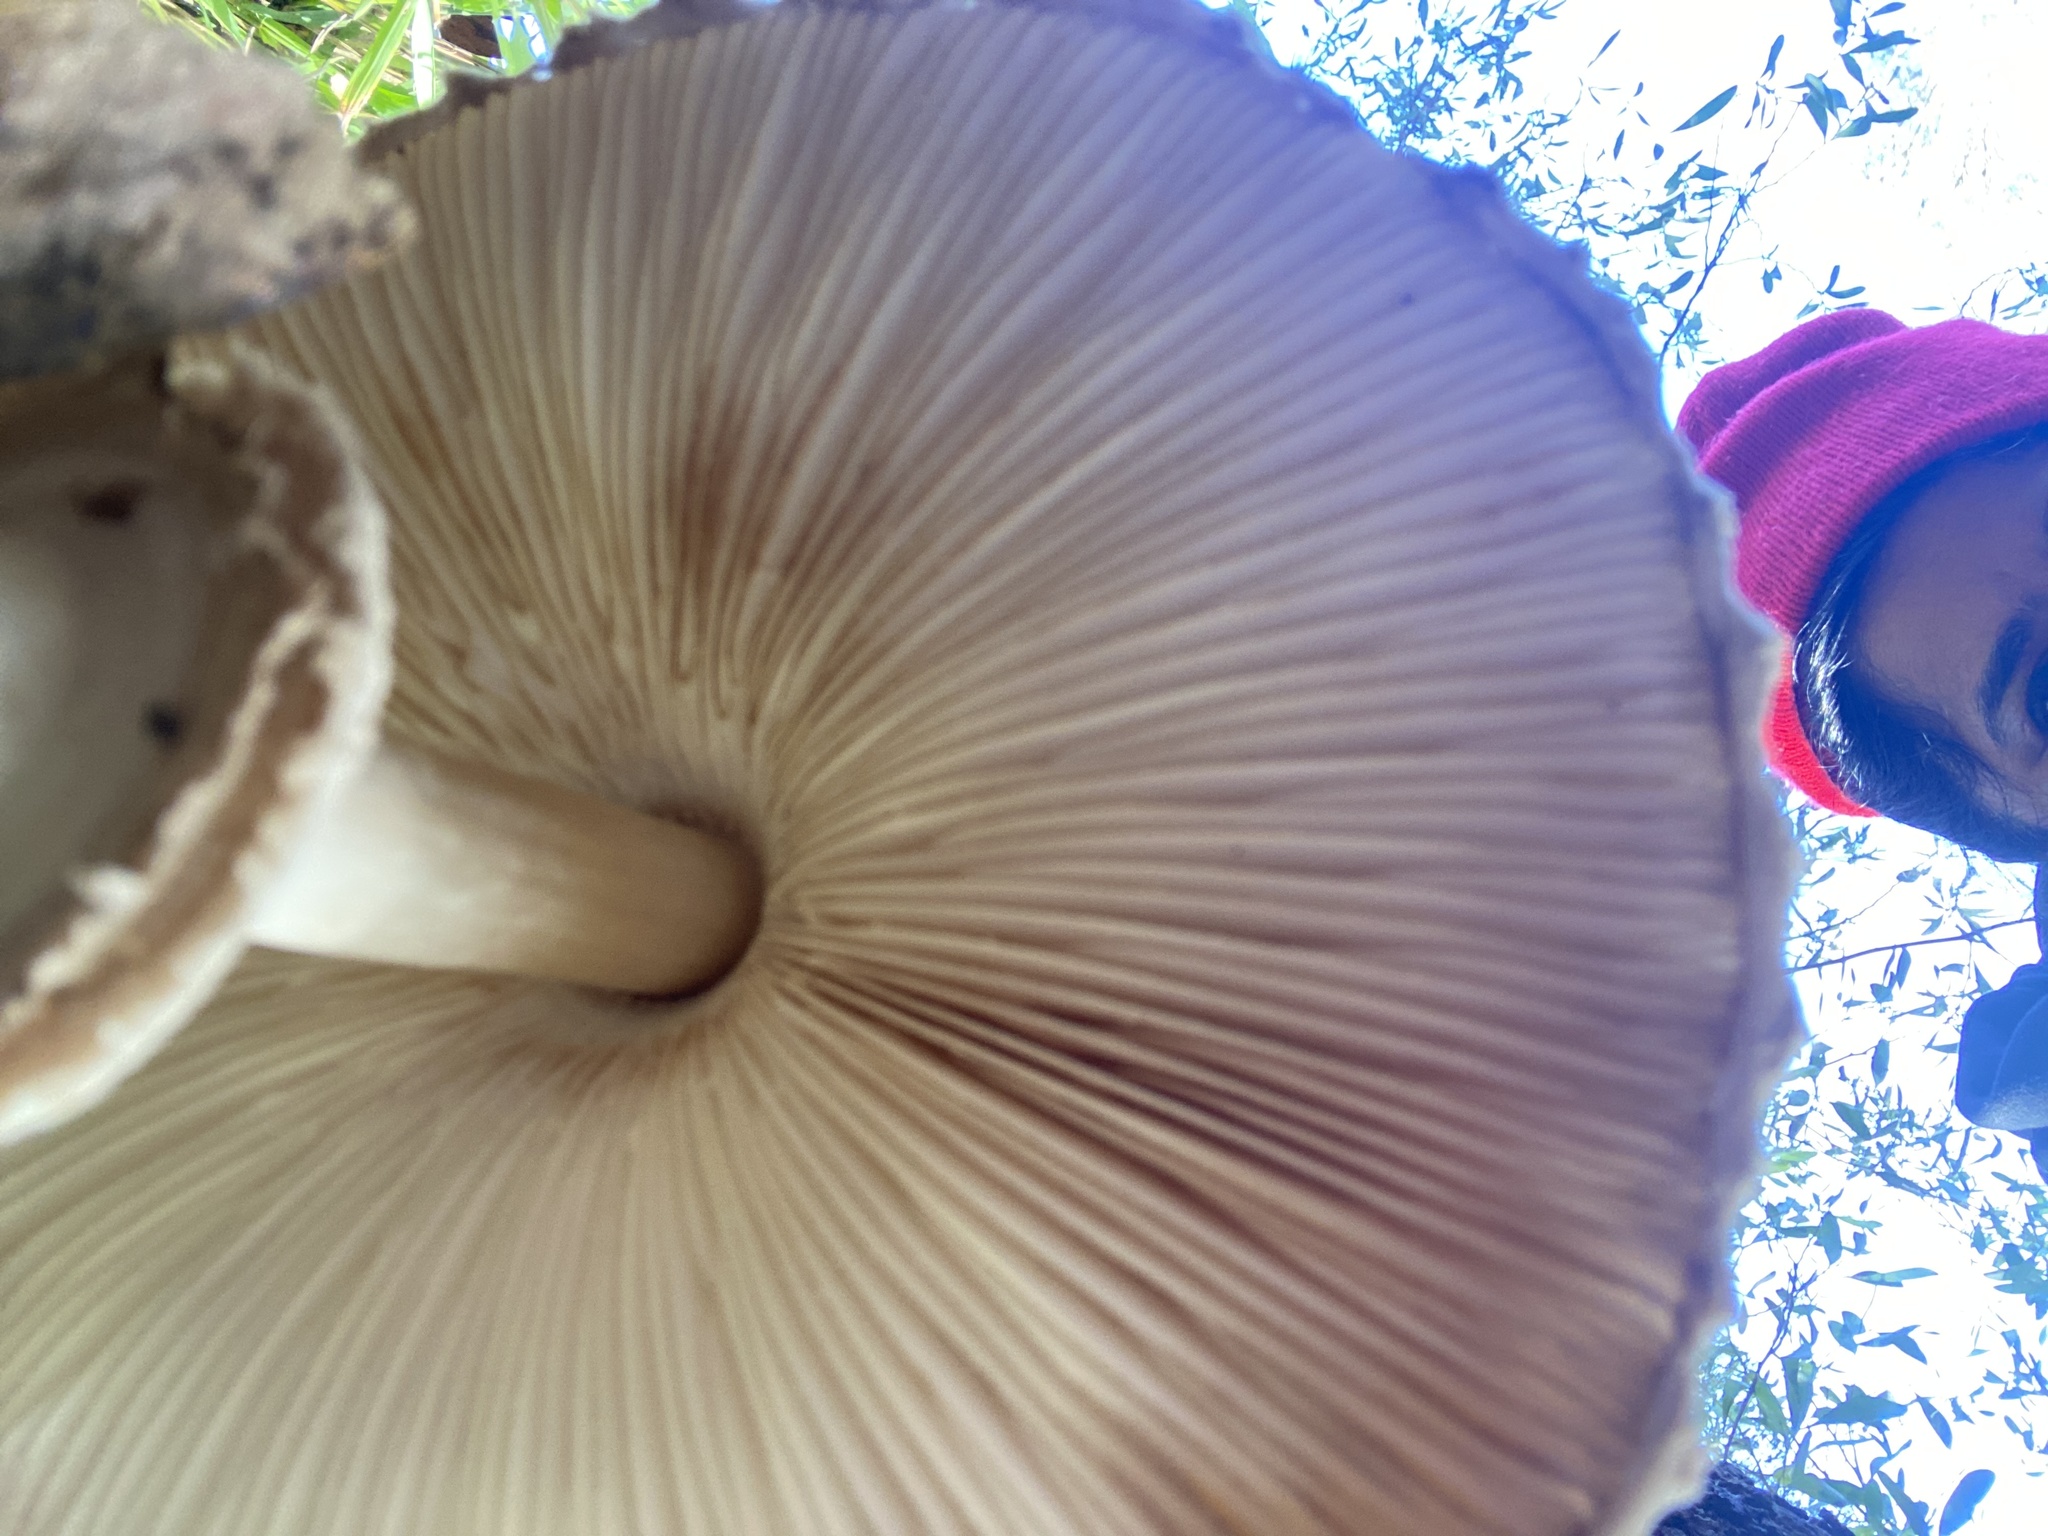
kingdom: Fungi
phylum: Basidiomycota
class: Agaricomycetes
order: Agaricales
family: Agaricaceae
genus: Chlorophyllum
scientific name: Chlorophyllum olivieri
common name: Conifer parasol
